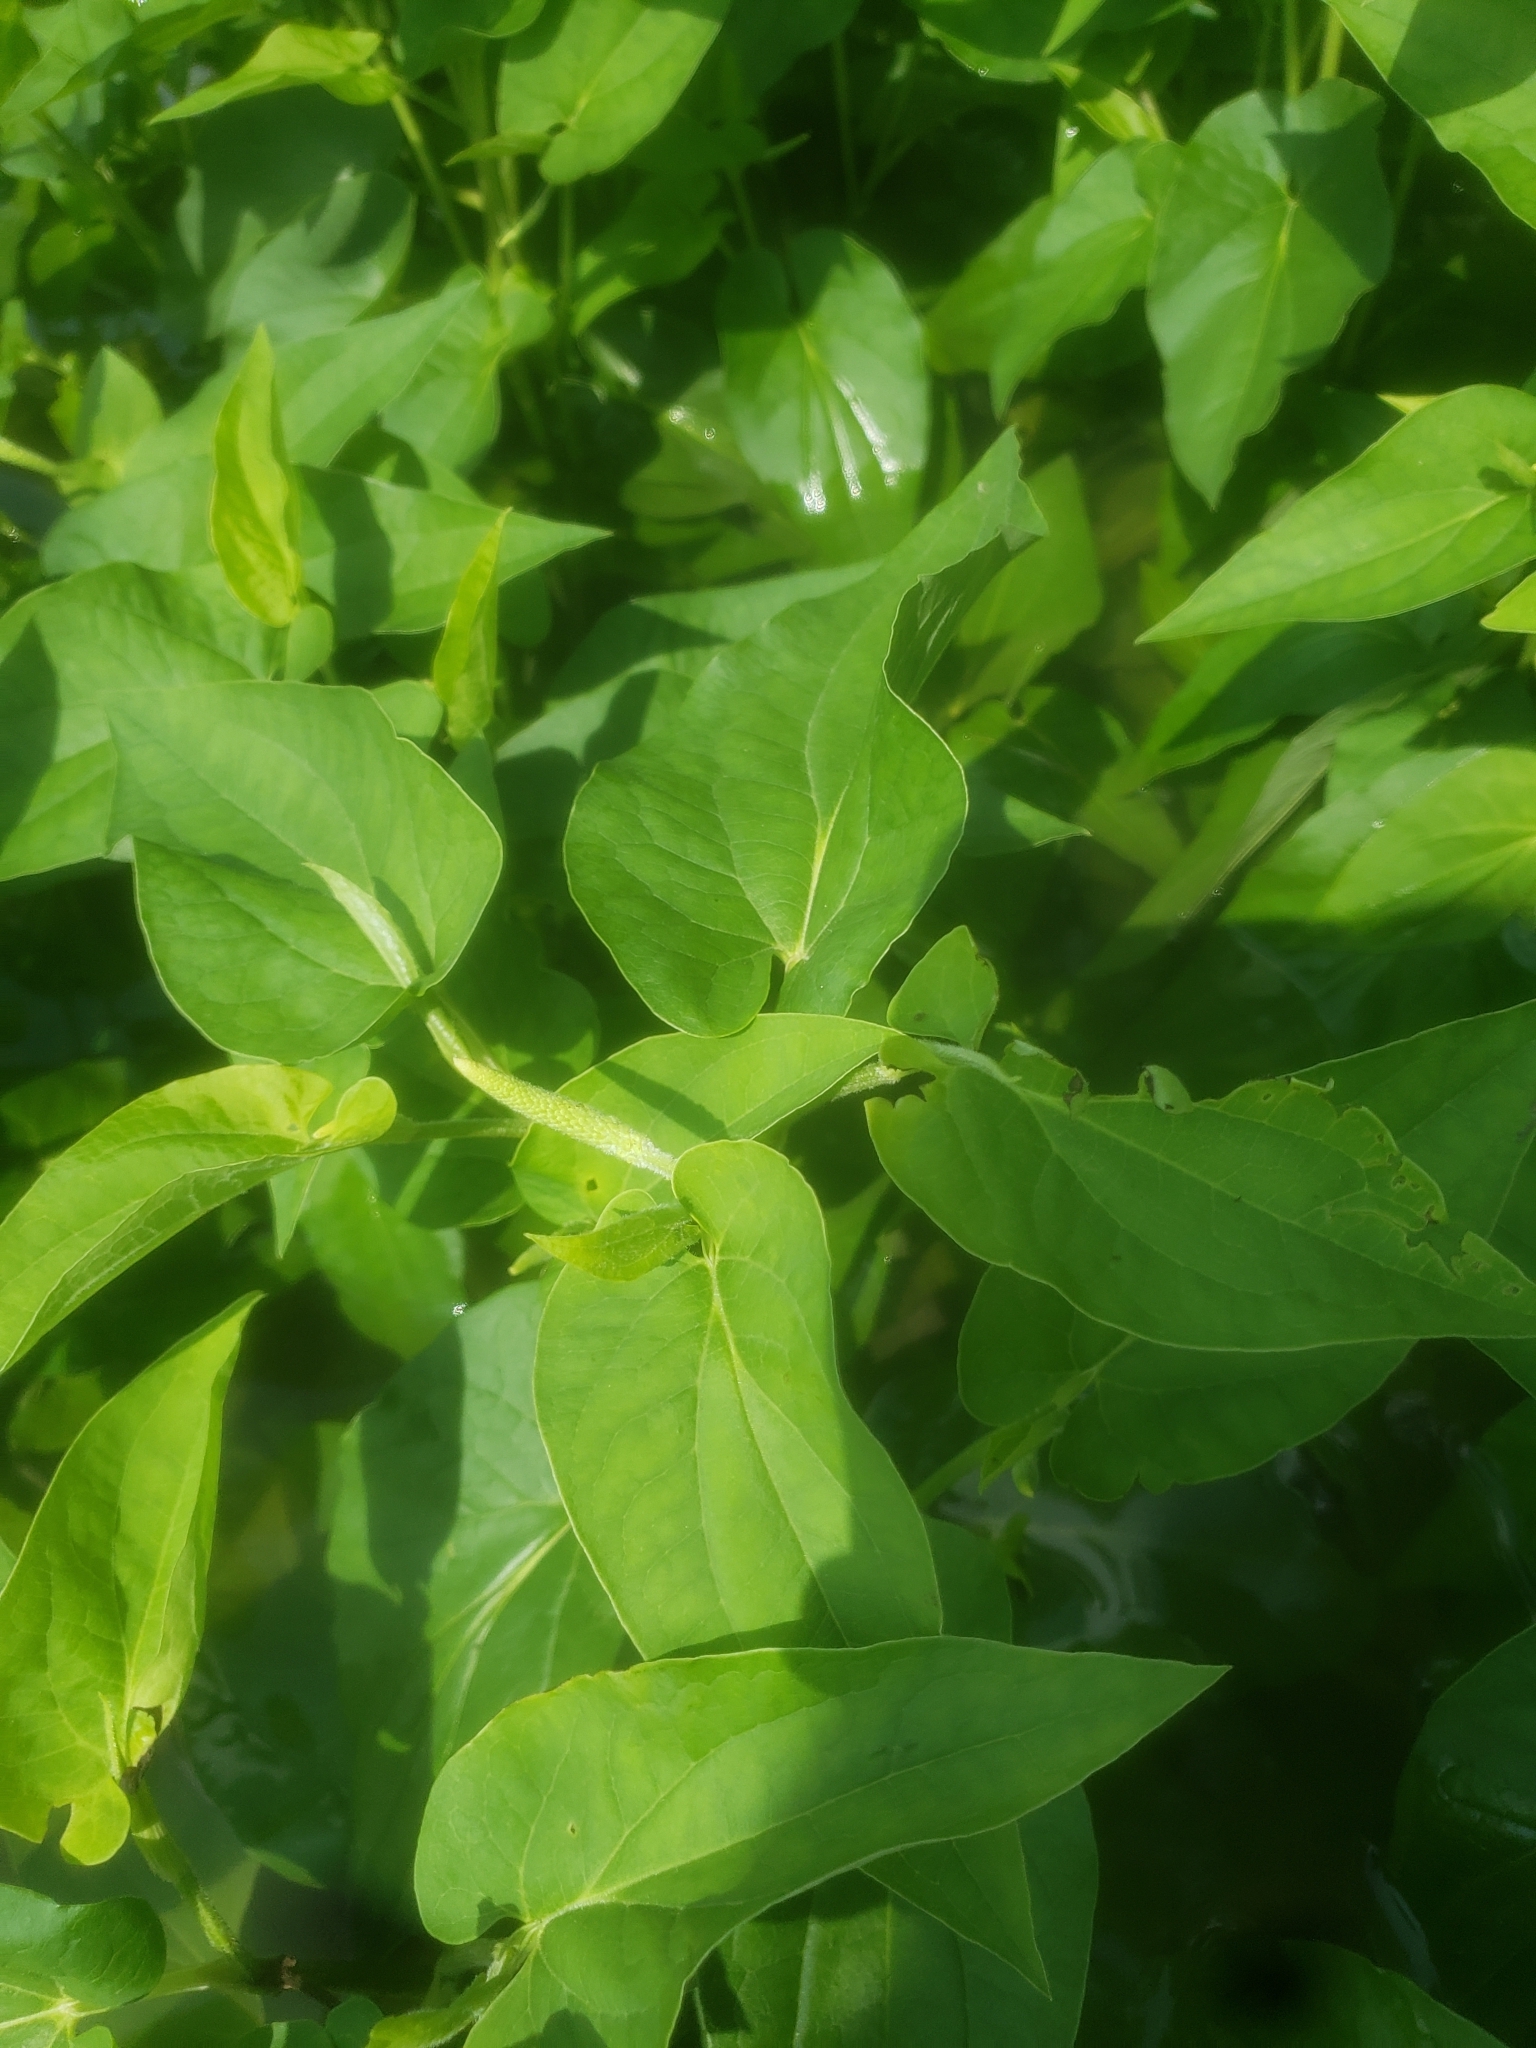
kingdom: Plantae
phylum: Tracheophyta
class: Magnoliopsida
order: Piperales
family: Saururaceae
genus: Saururus
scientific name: Saururus cernuus
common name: Lizard's-tail
